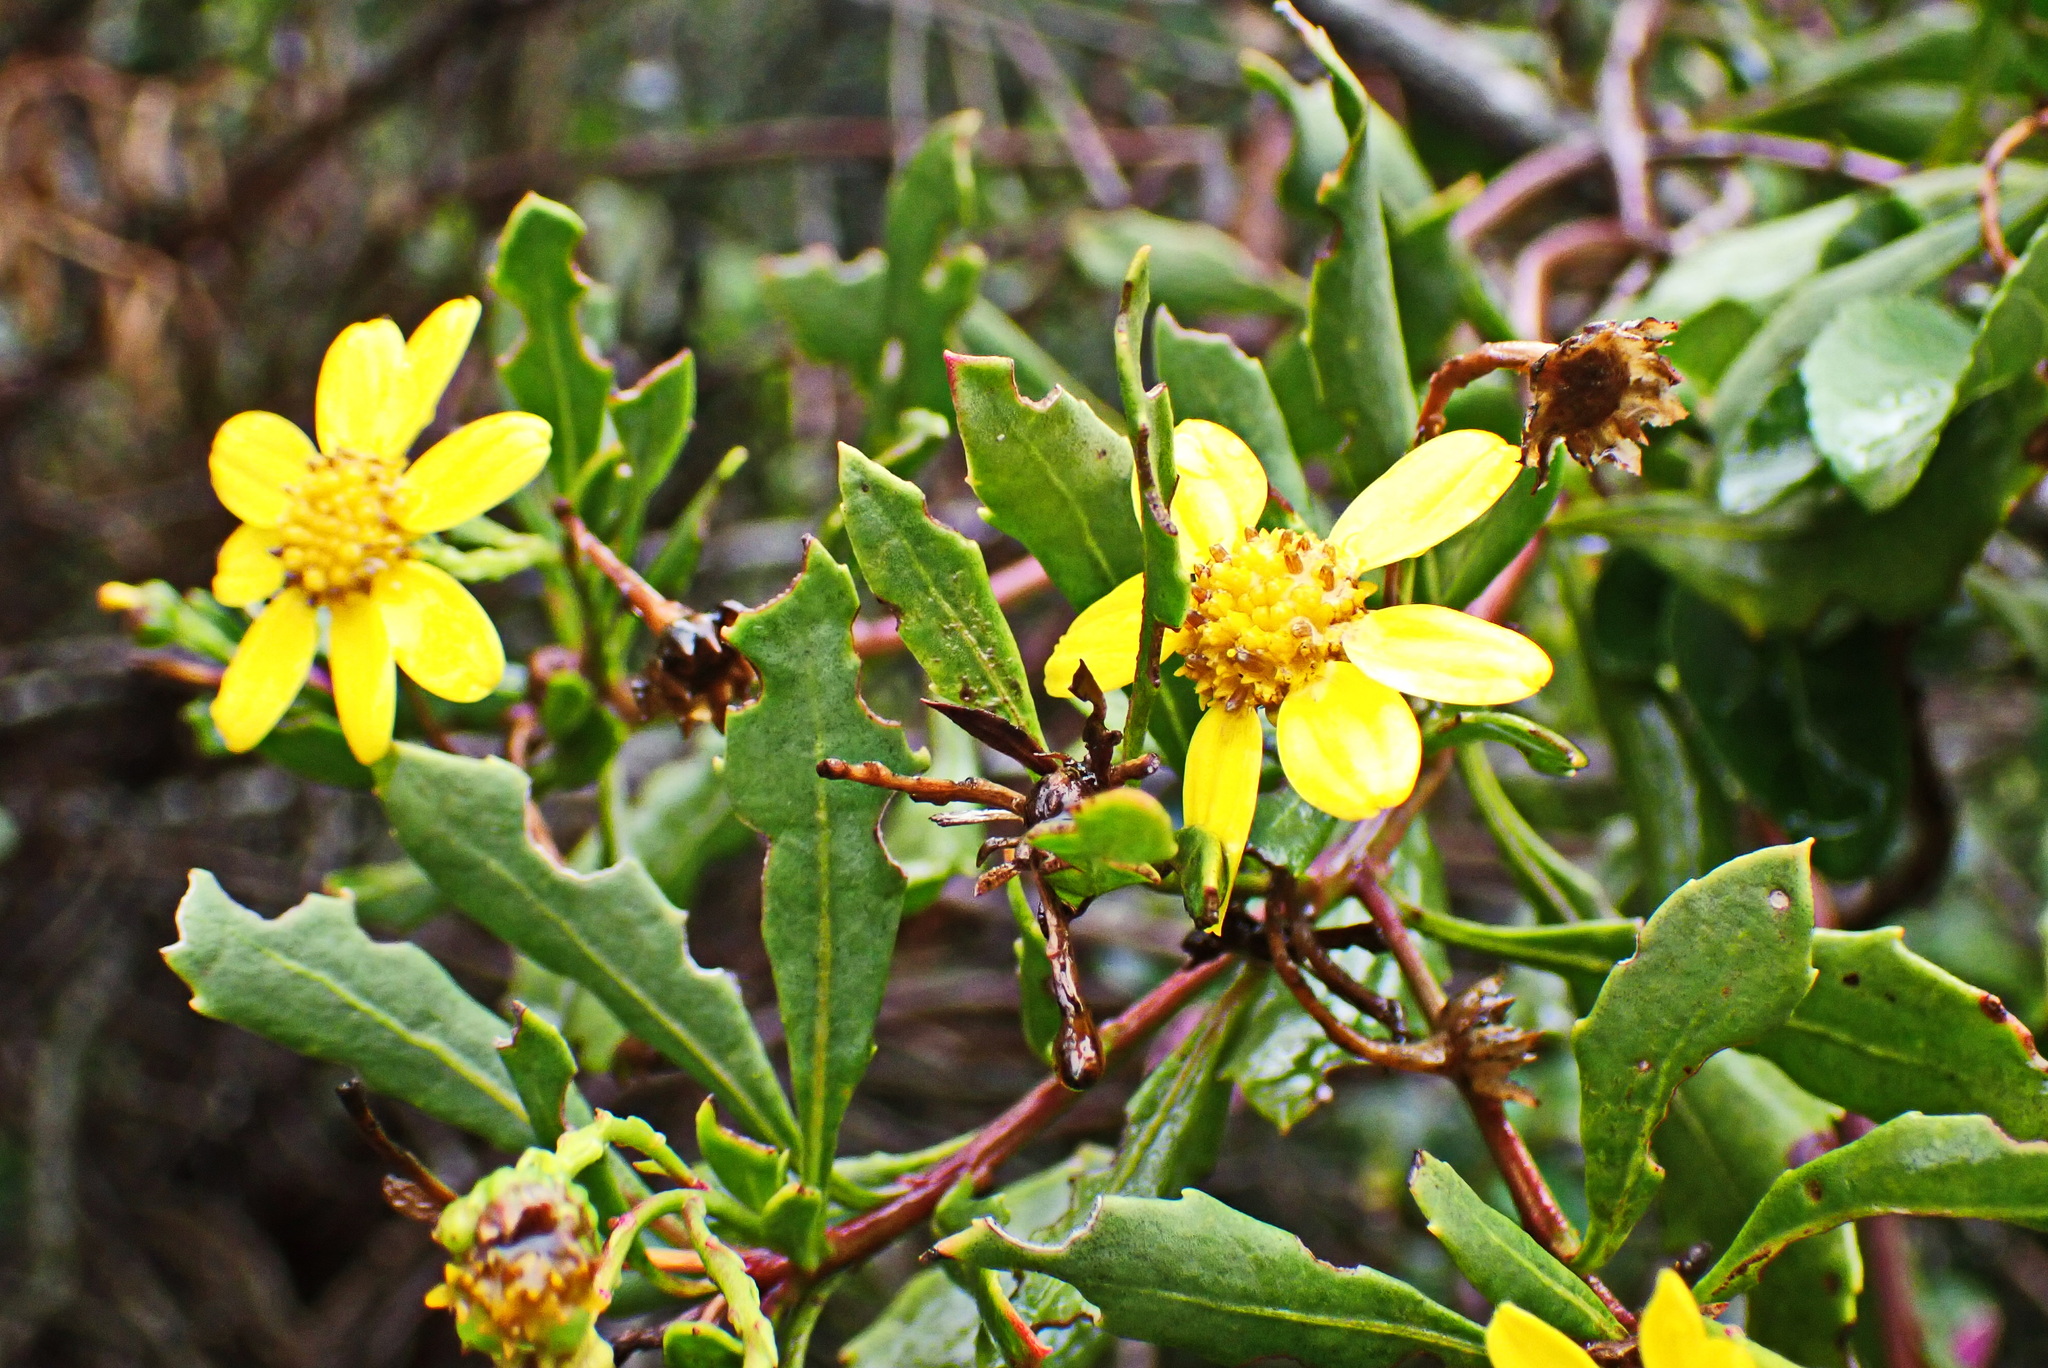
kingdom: Plantae
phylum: Tracheophyta
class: Magnoliopsida
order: Asterales
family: Asteraceae
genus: Osteospermum
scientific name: Osteospermum moniliferum
